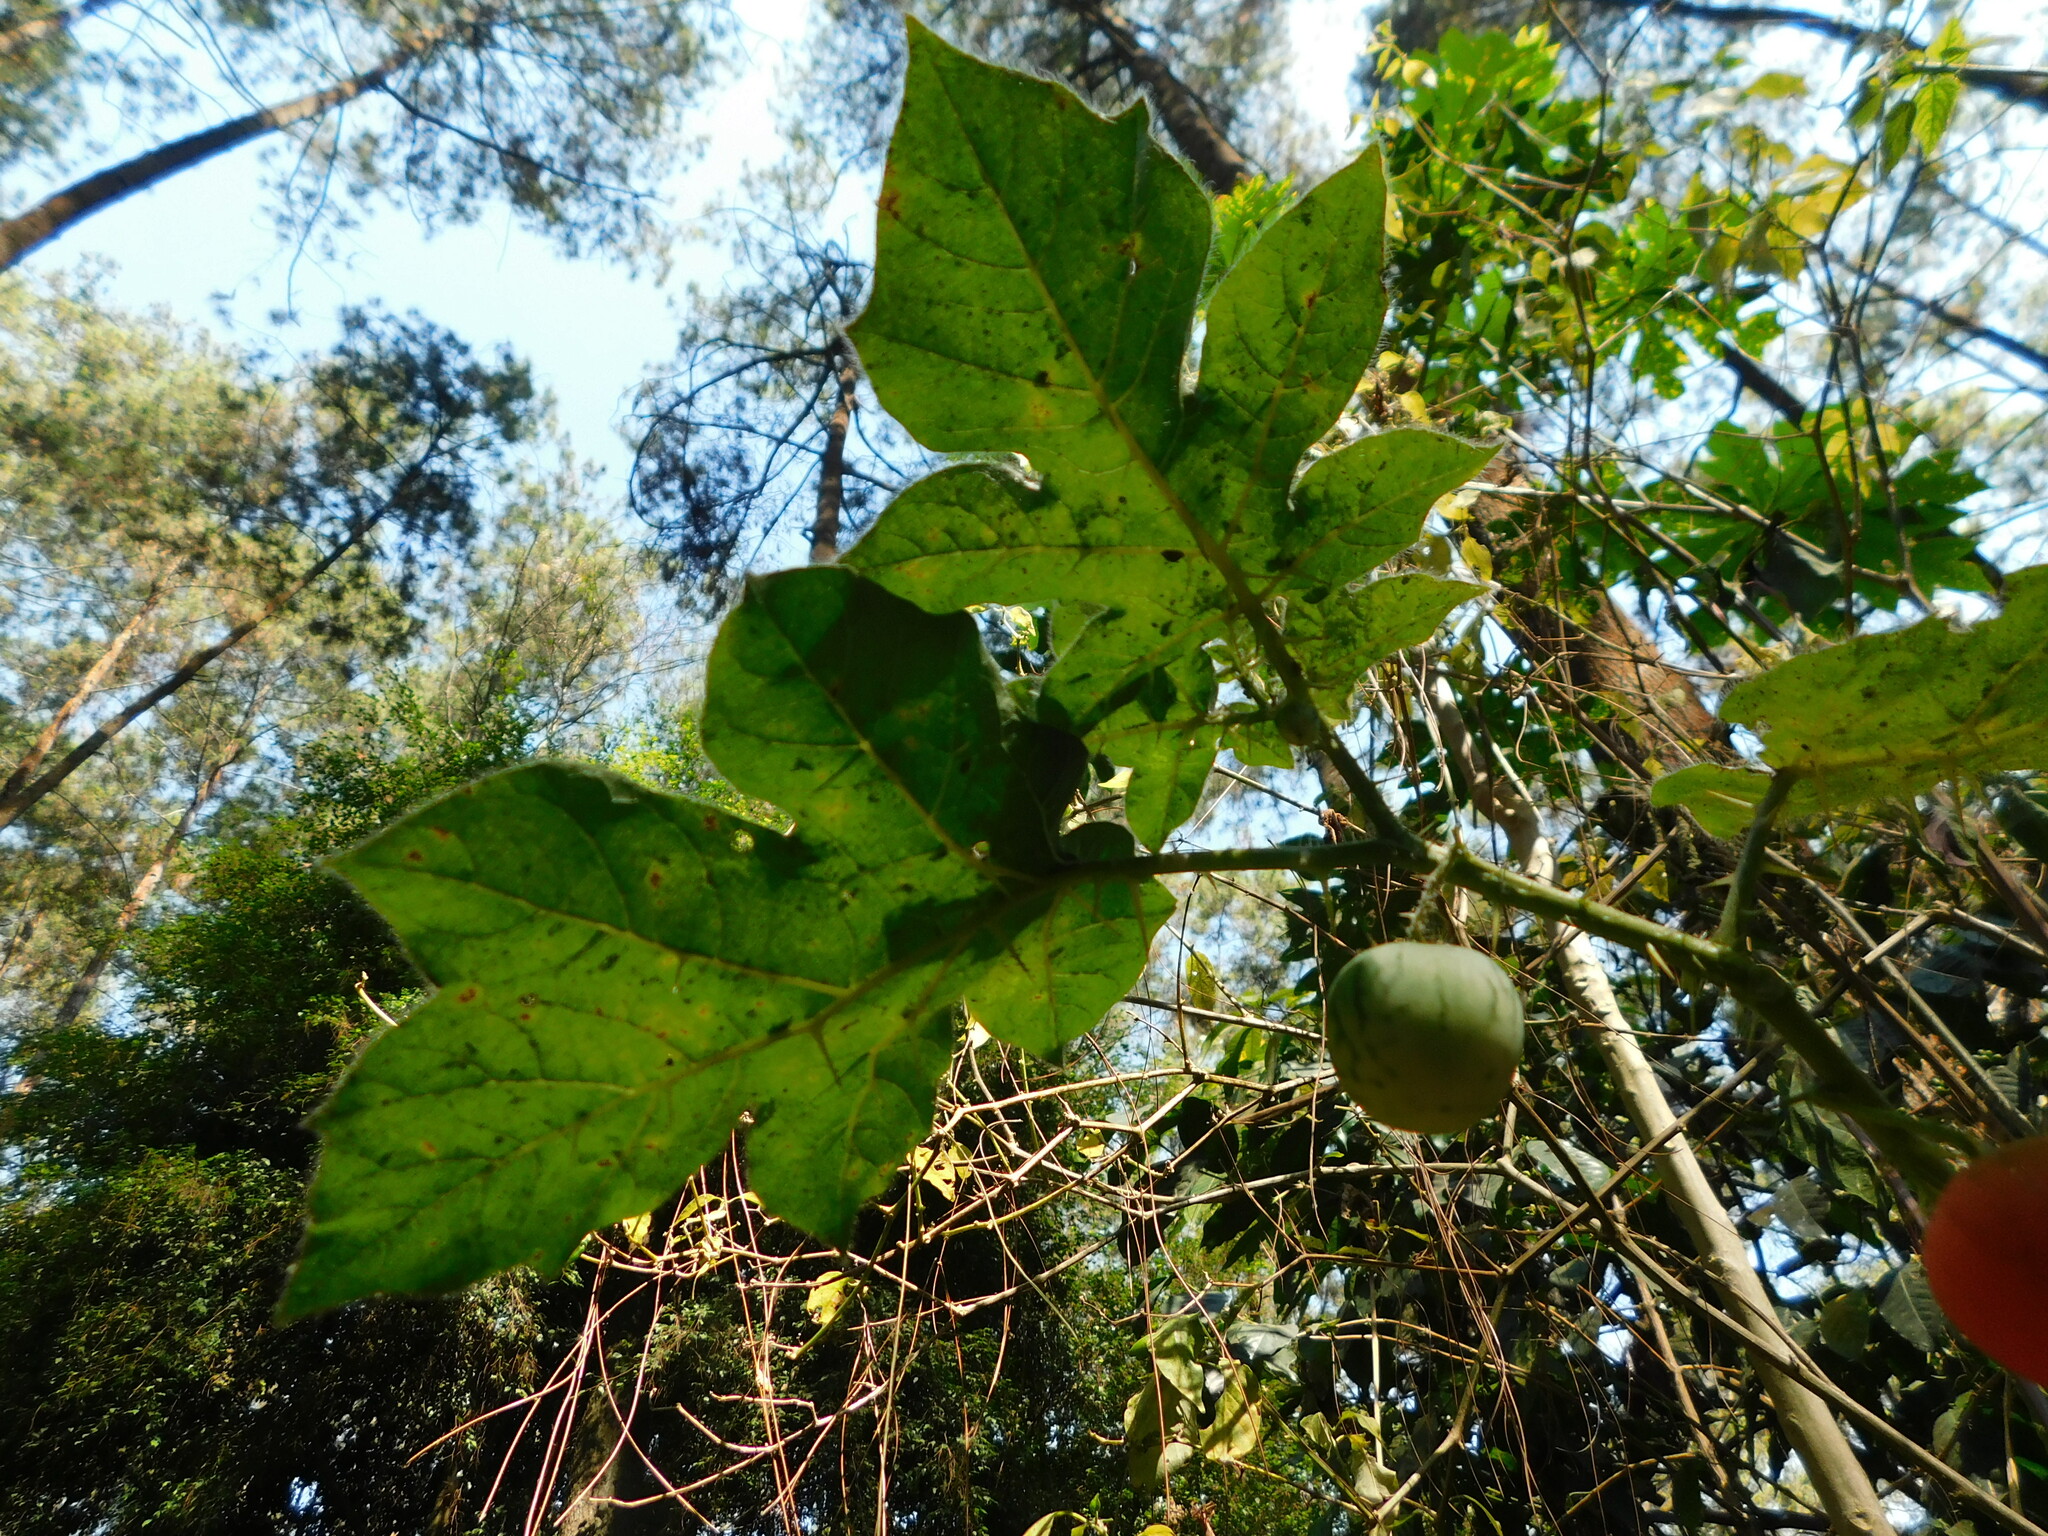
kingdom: Plantae
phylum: Tracheophyta
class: Magnoliopsida
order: Solanales
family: Solanaceae
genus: Solanum
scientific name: Solanum capsicoides
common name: Cockroach berry
